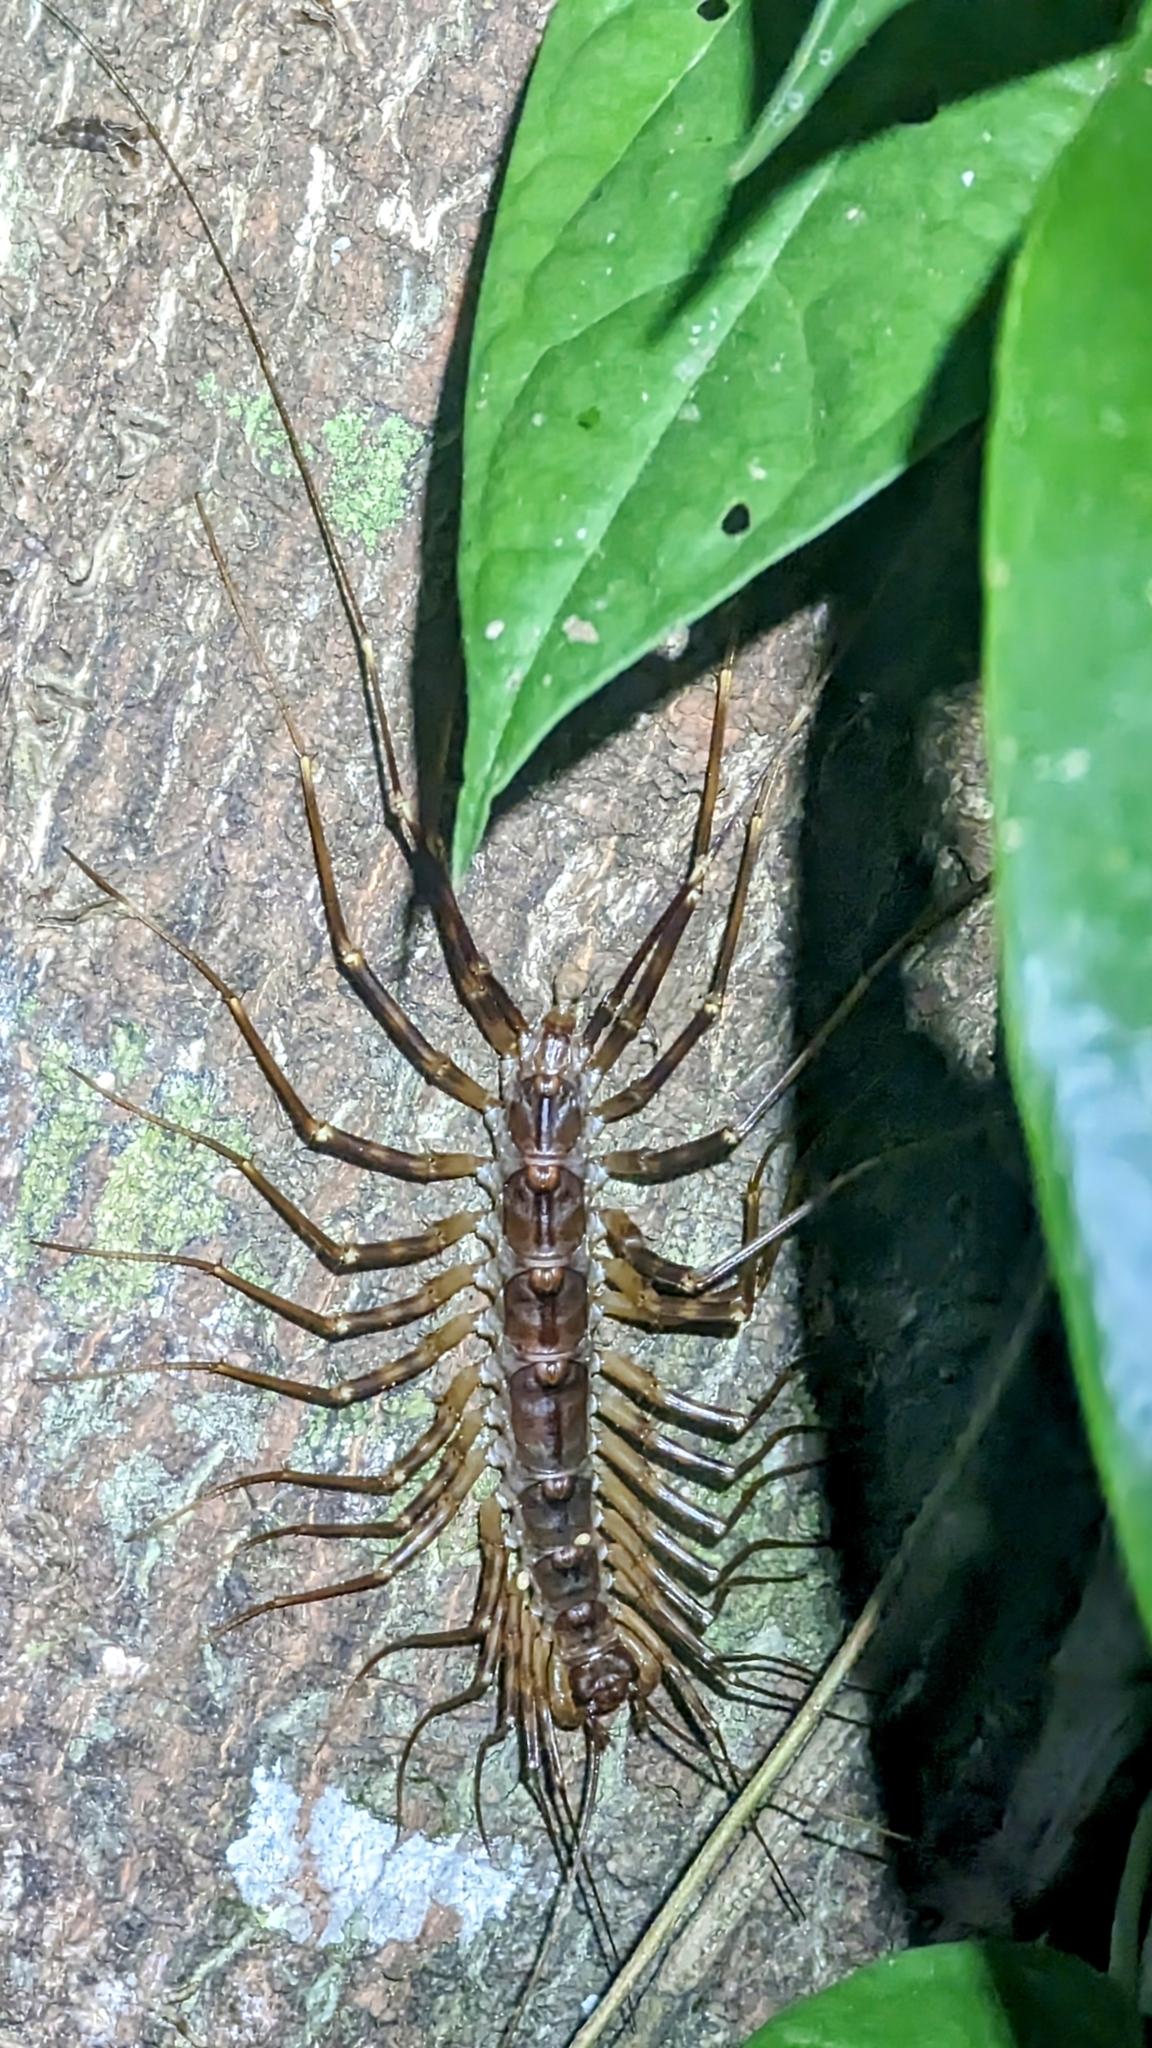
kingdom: Animalia
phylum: Arthropoda
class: Chilopoda
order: Scutigeromorpha
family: Scutigeridae
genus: Thereuopoda
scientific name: Thereuopoda longicornis
